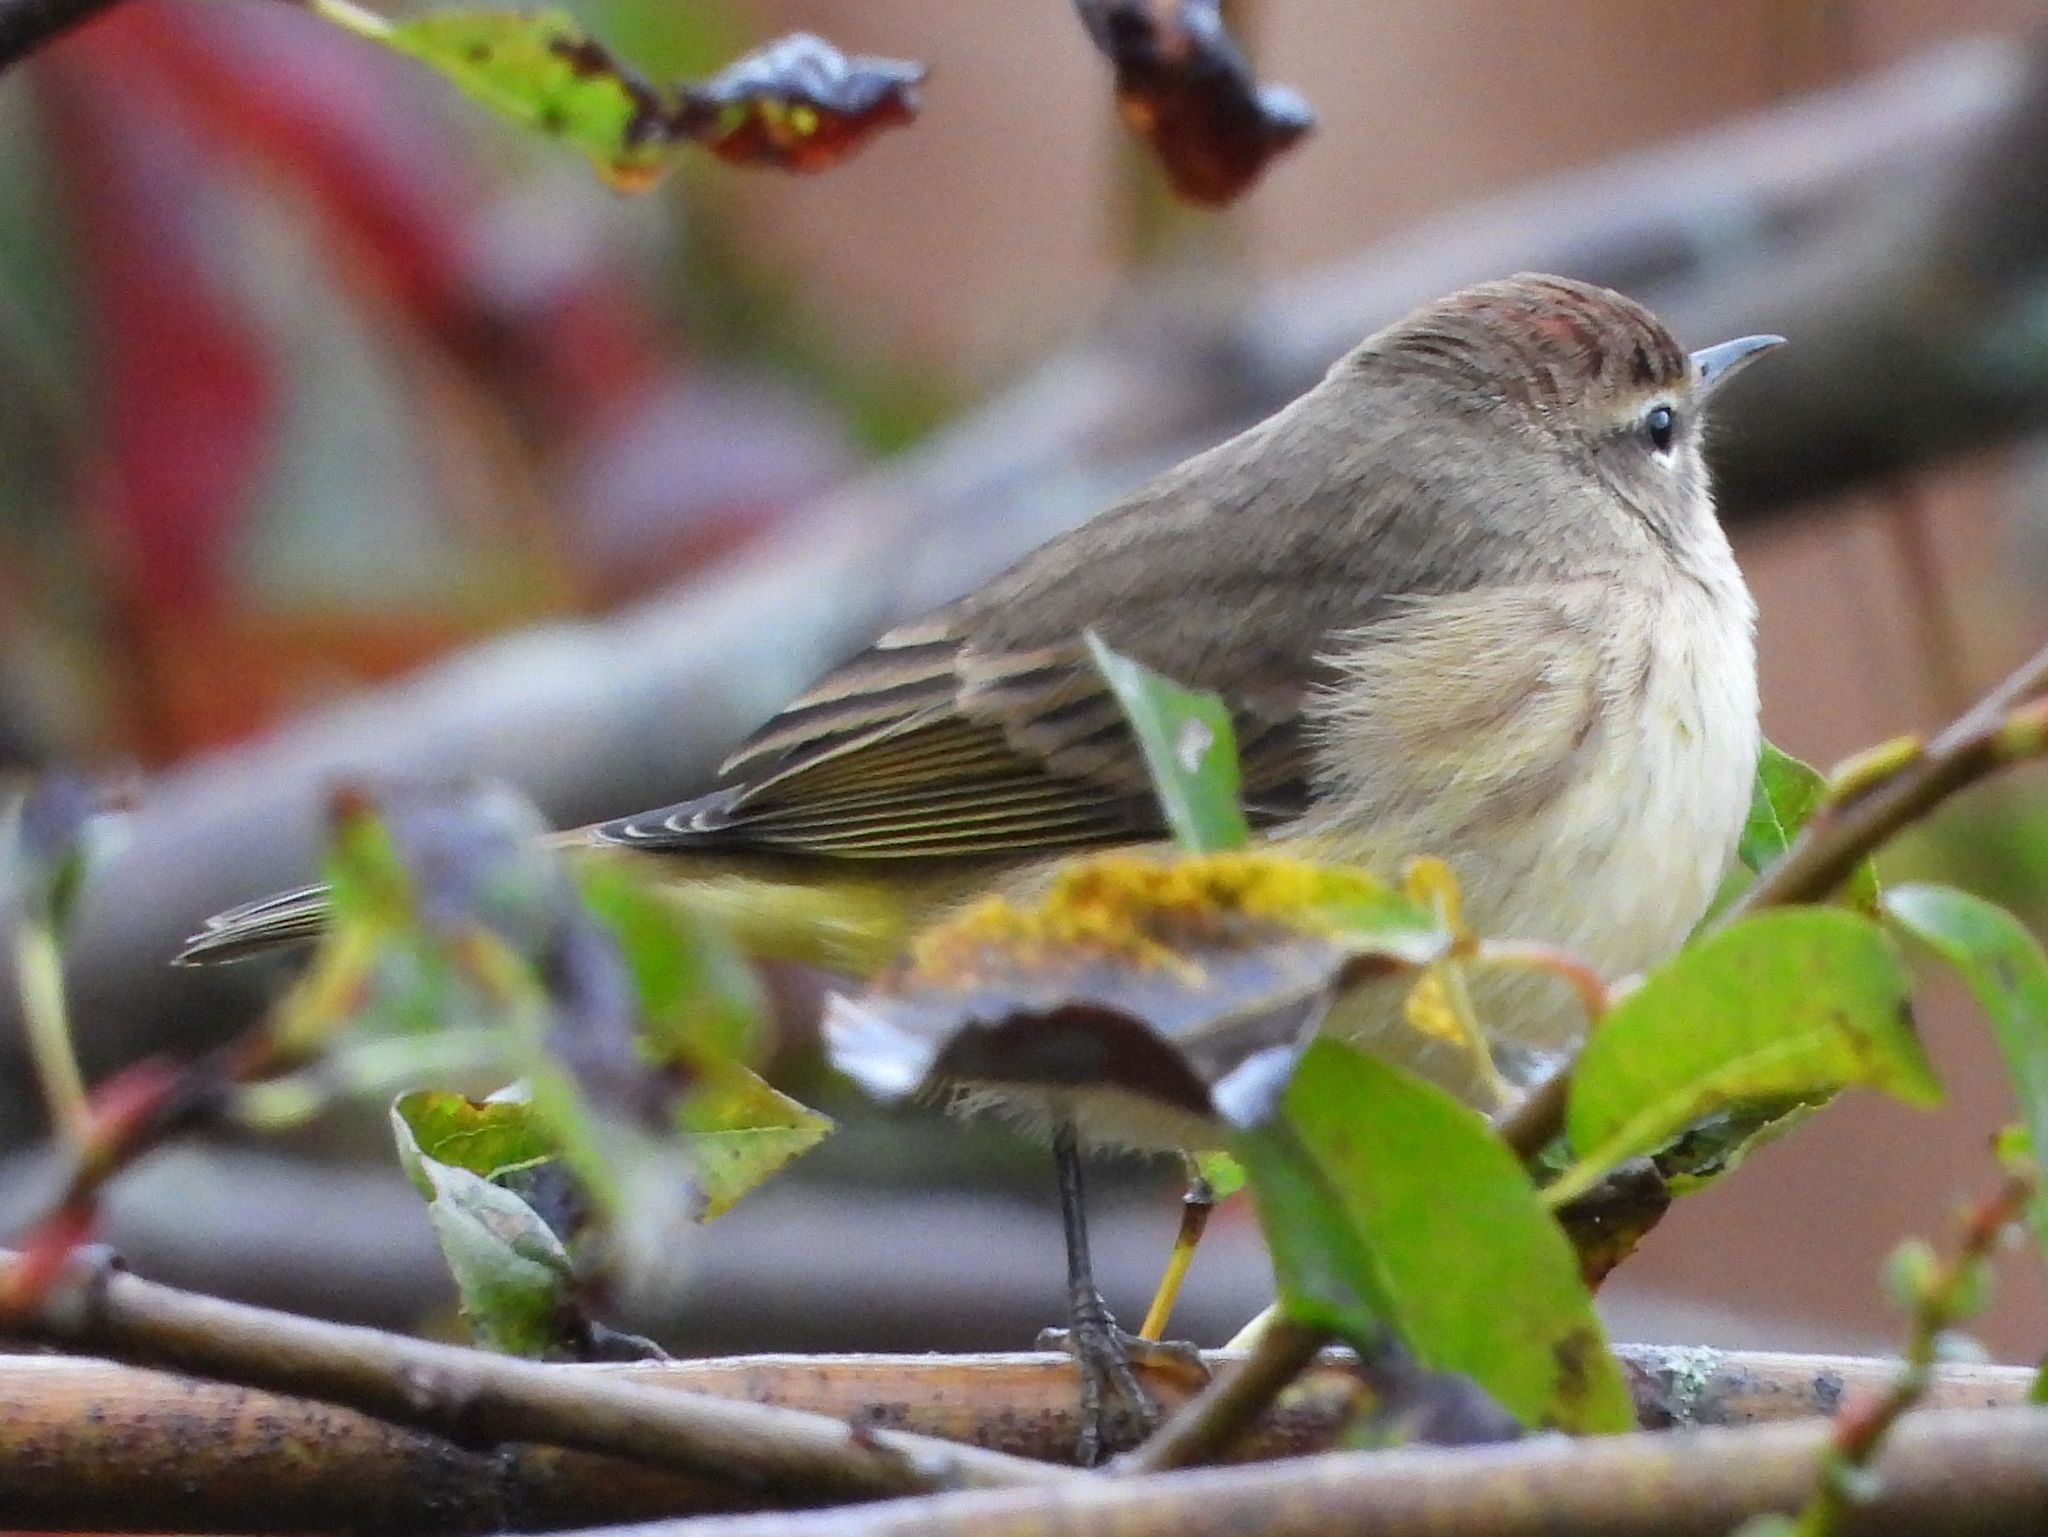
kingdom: Animalia
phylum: Chordata
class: Aves
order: Passeriformes
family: Parulidae
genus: Setophaga
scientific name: Setophaga palmarum
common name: Palm warbler
